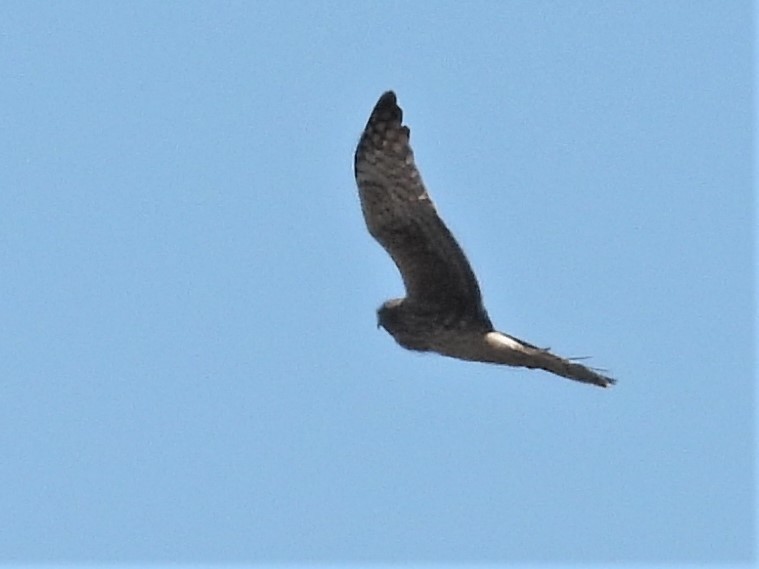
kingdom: Animalia
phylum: Chordata
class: Aves
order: Accipitriformes
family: Accipitridae
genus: Circus
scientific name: Circus cyaneus
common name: Hen harrier
